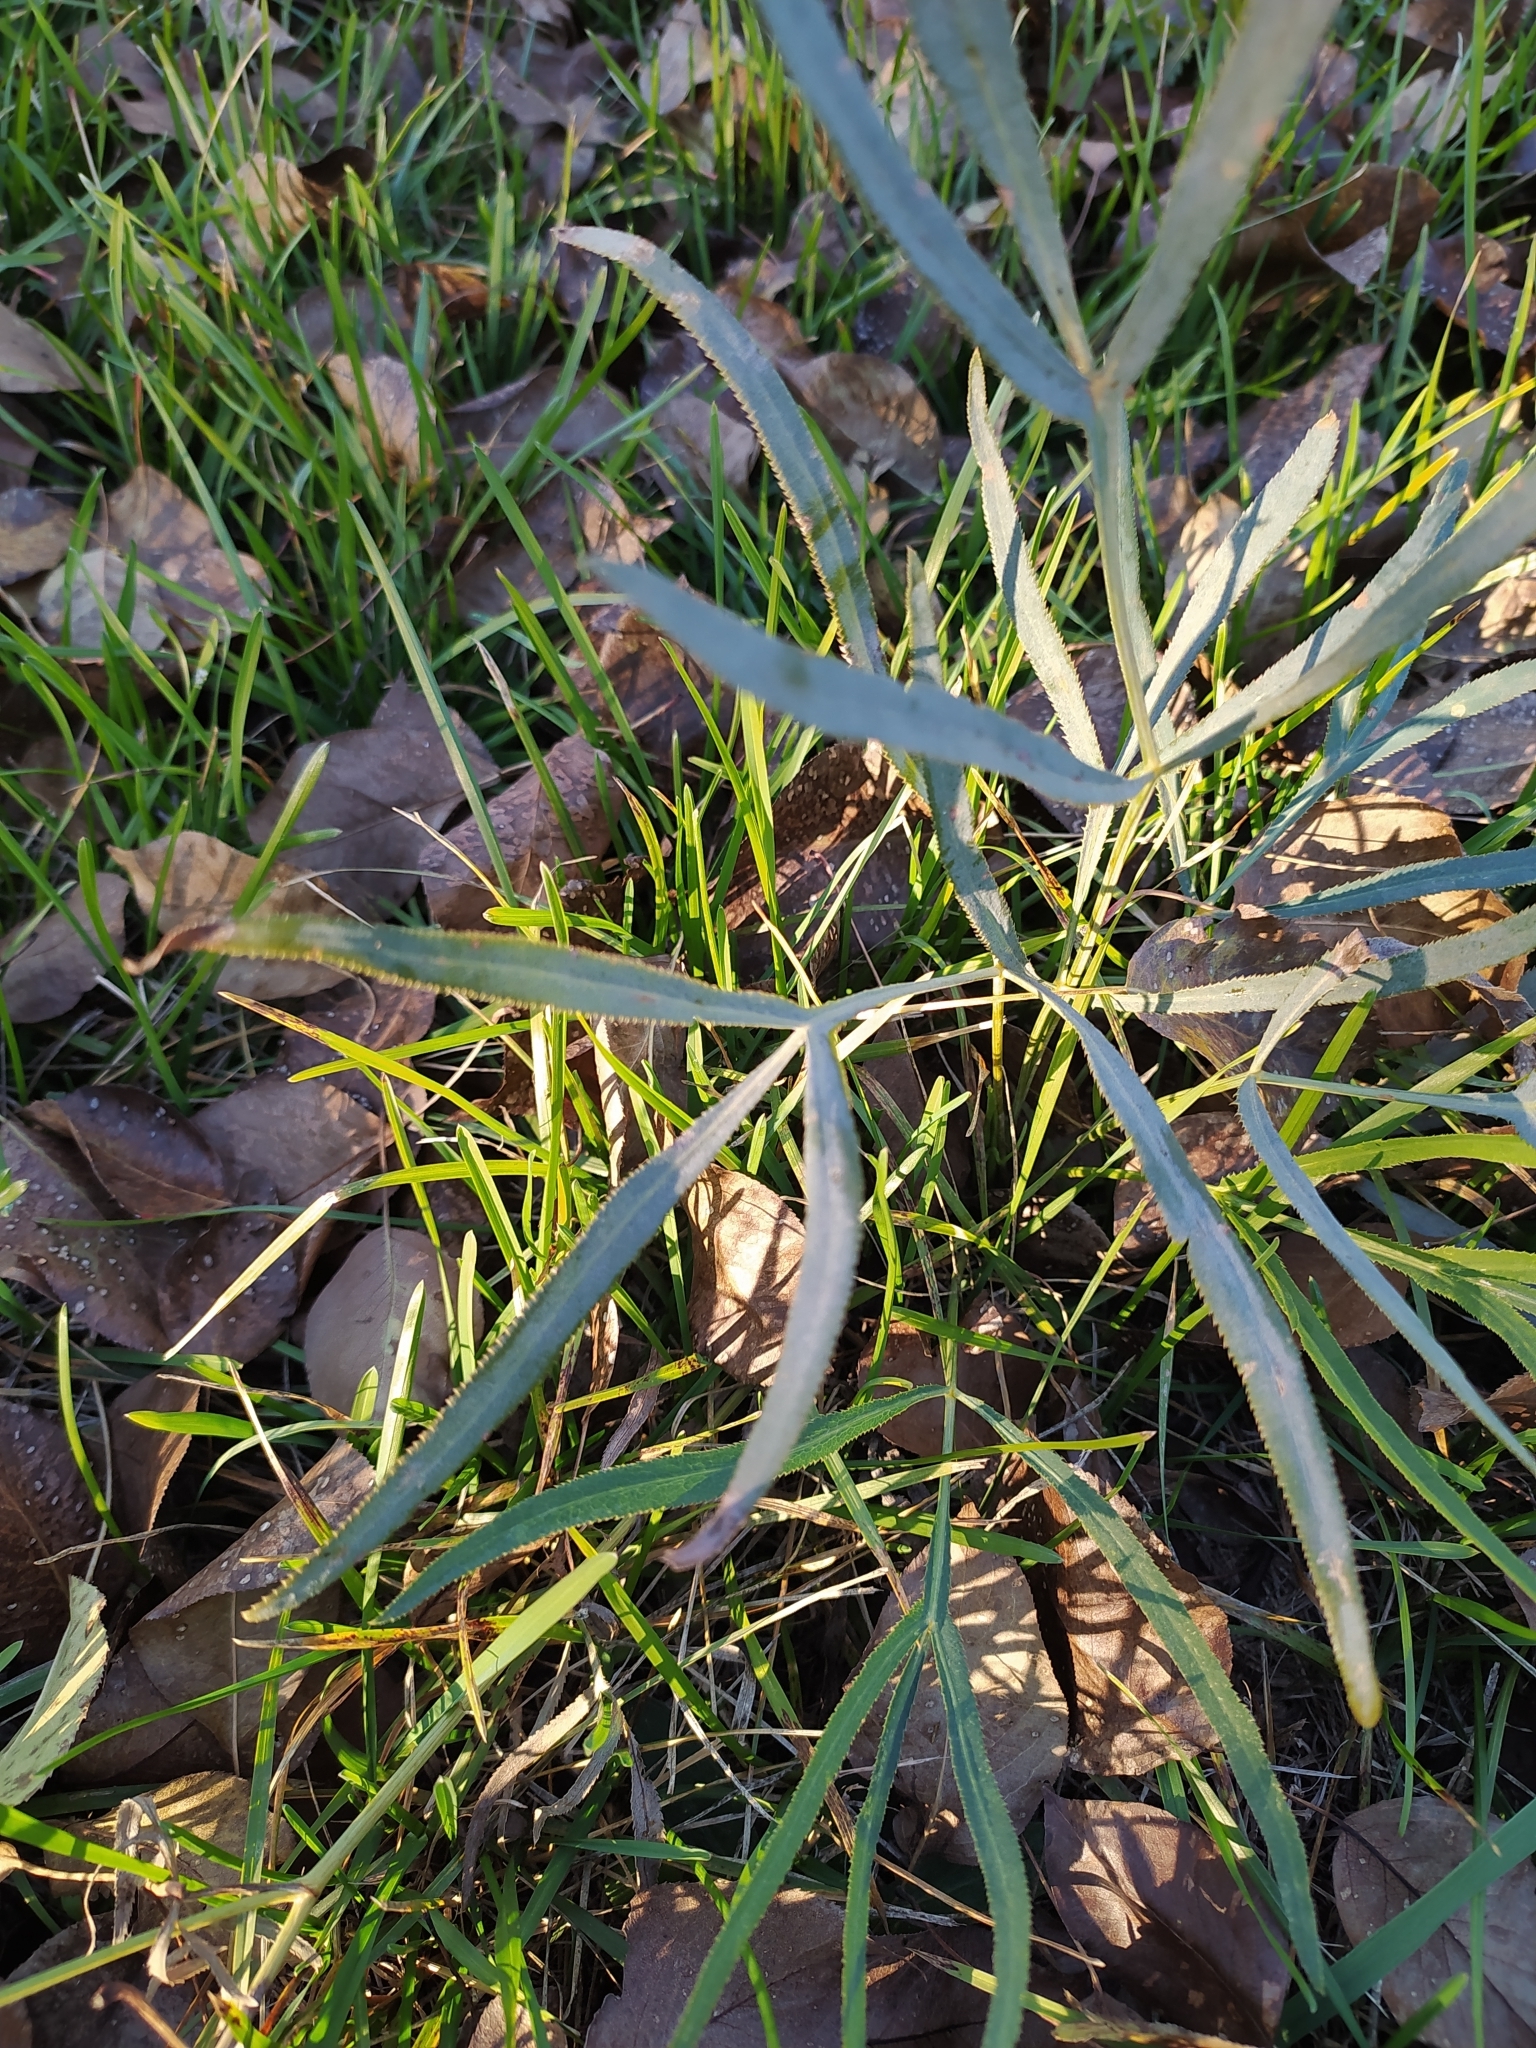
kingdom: Plantae
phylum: Tracheophyta
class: Magnoliopsida
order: Apiales
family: Apiaceae
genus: Falcaria
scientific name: Falcaria vulgaris
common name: Longleaf
